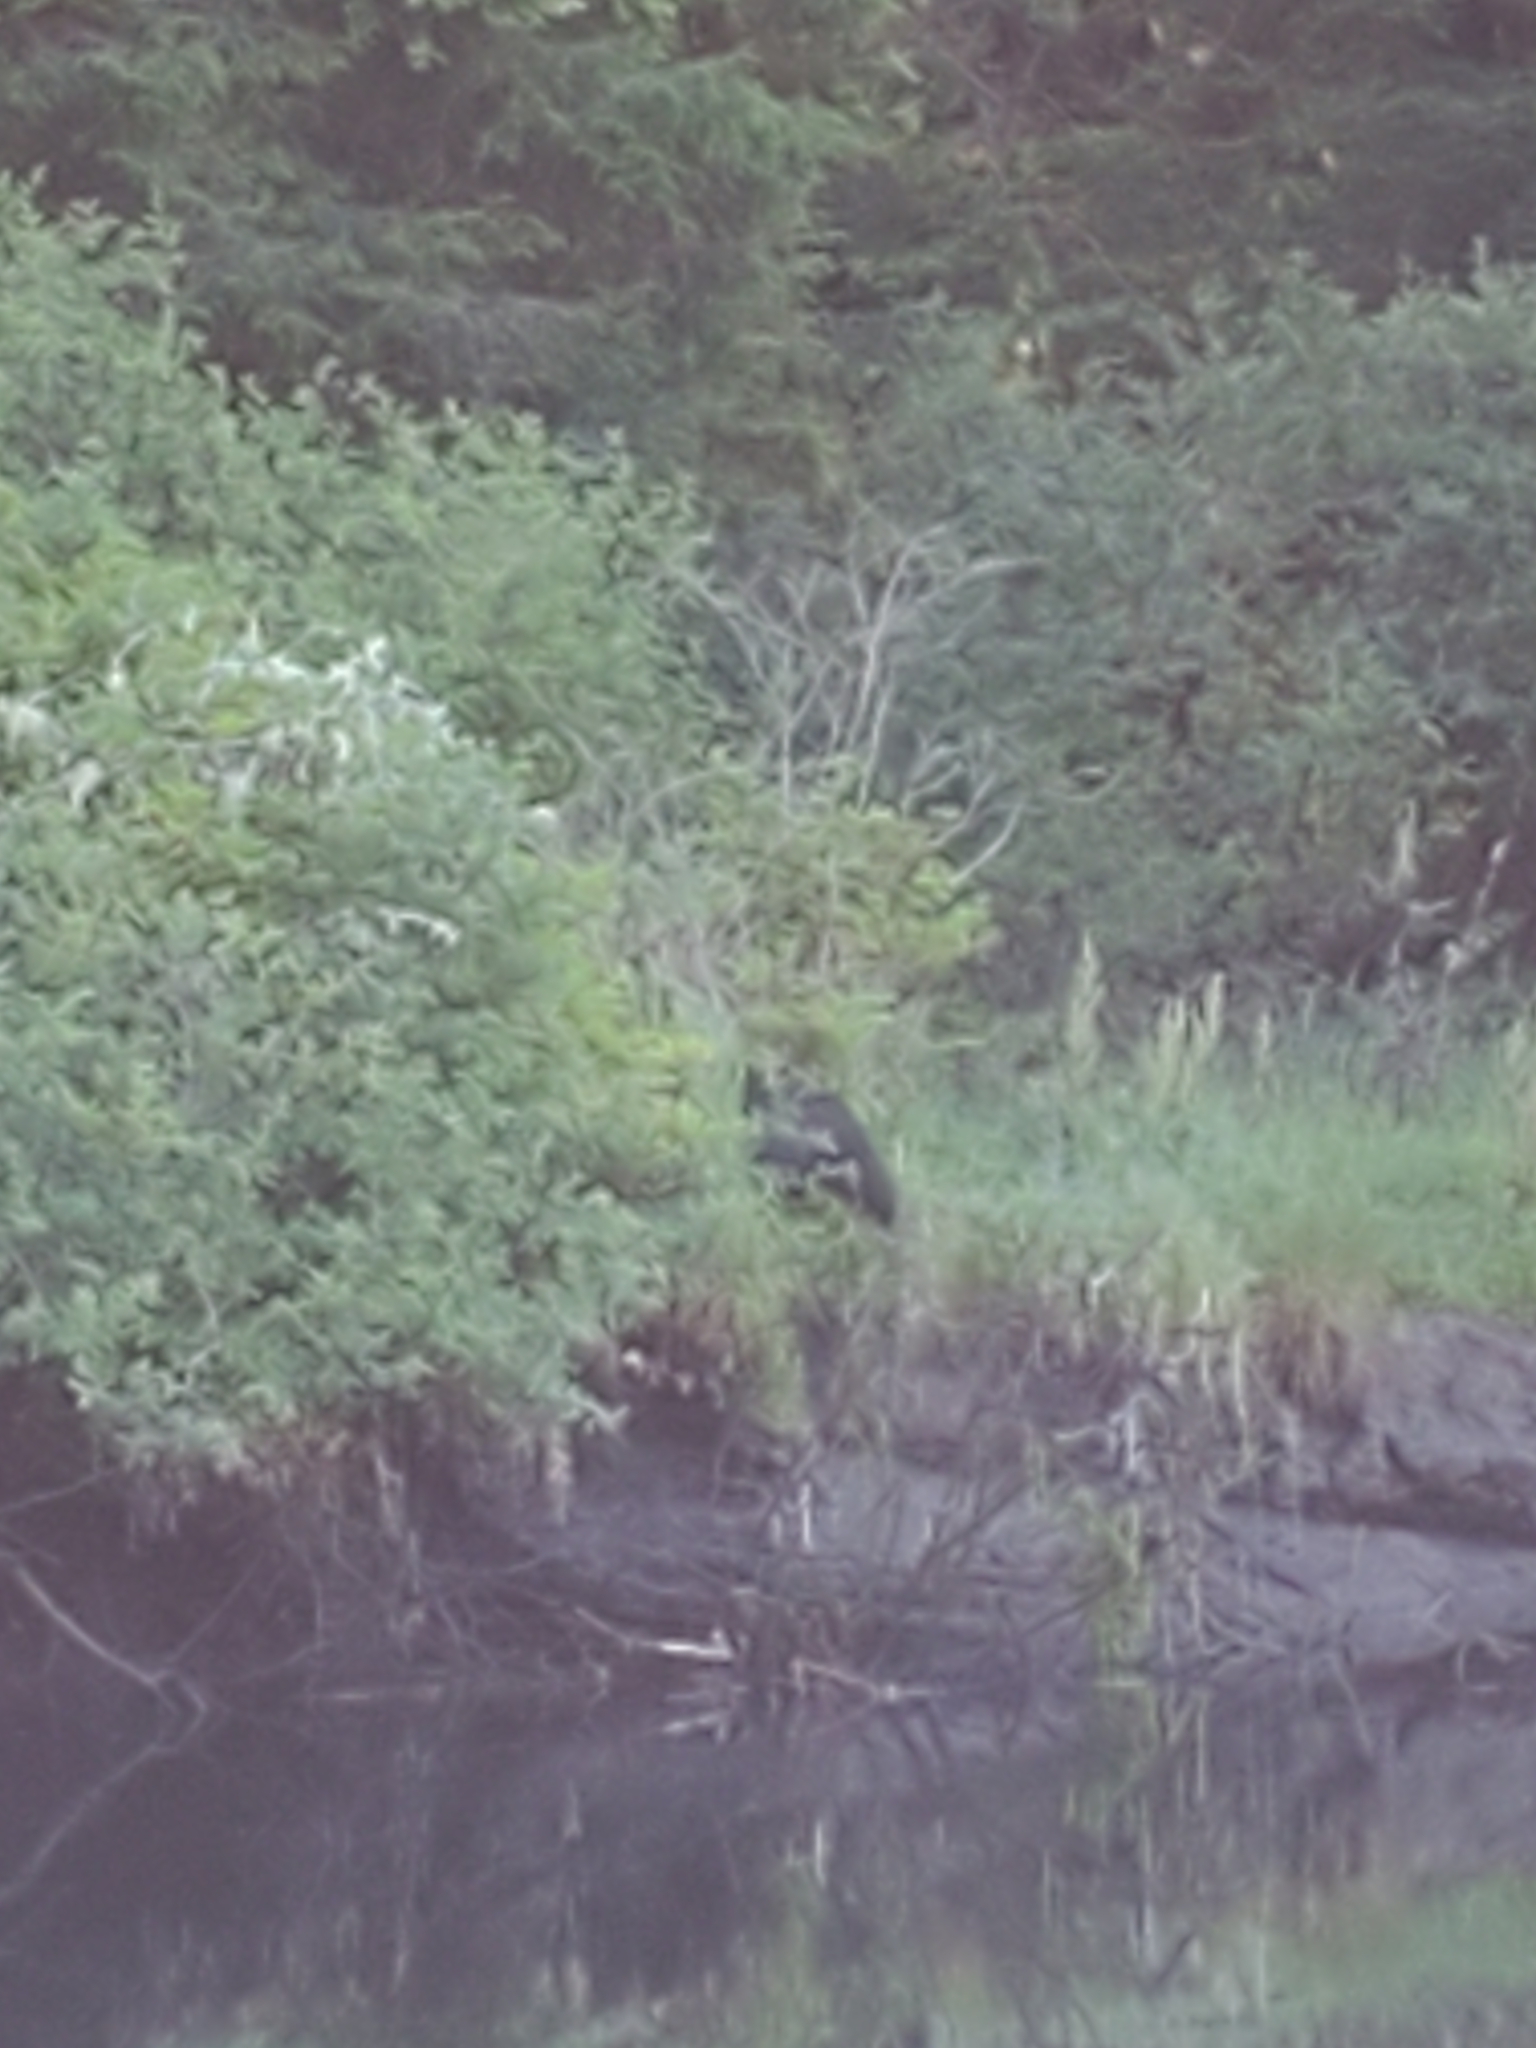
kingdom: Animalia
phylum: Chordata
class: Mammalia
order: Carnivora
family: Ursidae
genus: Ursus
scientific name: Ursus americanus
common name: American black bear
